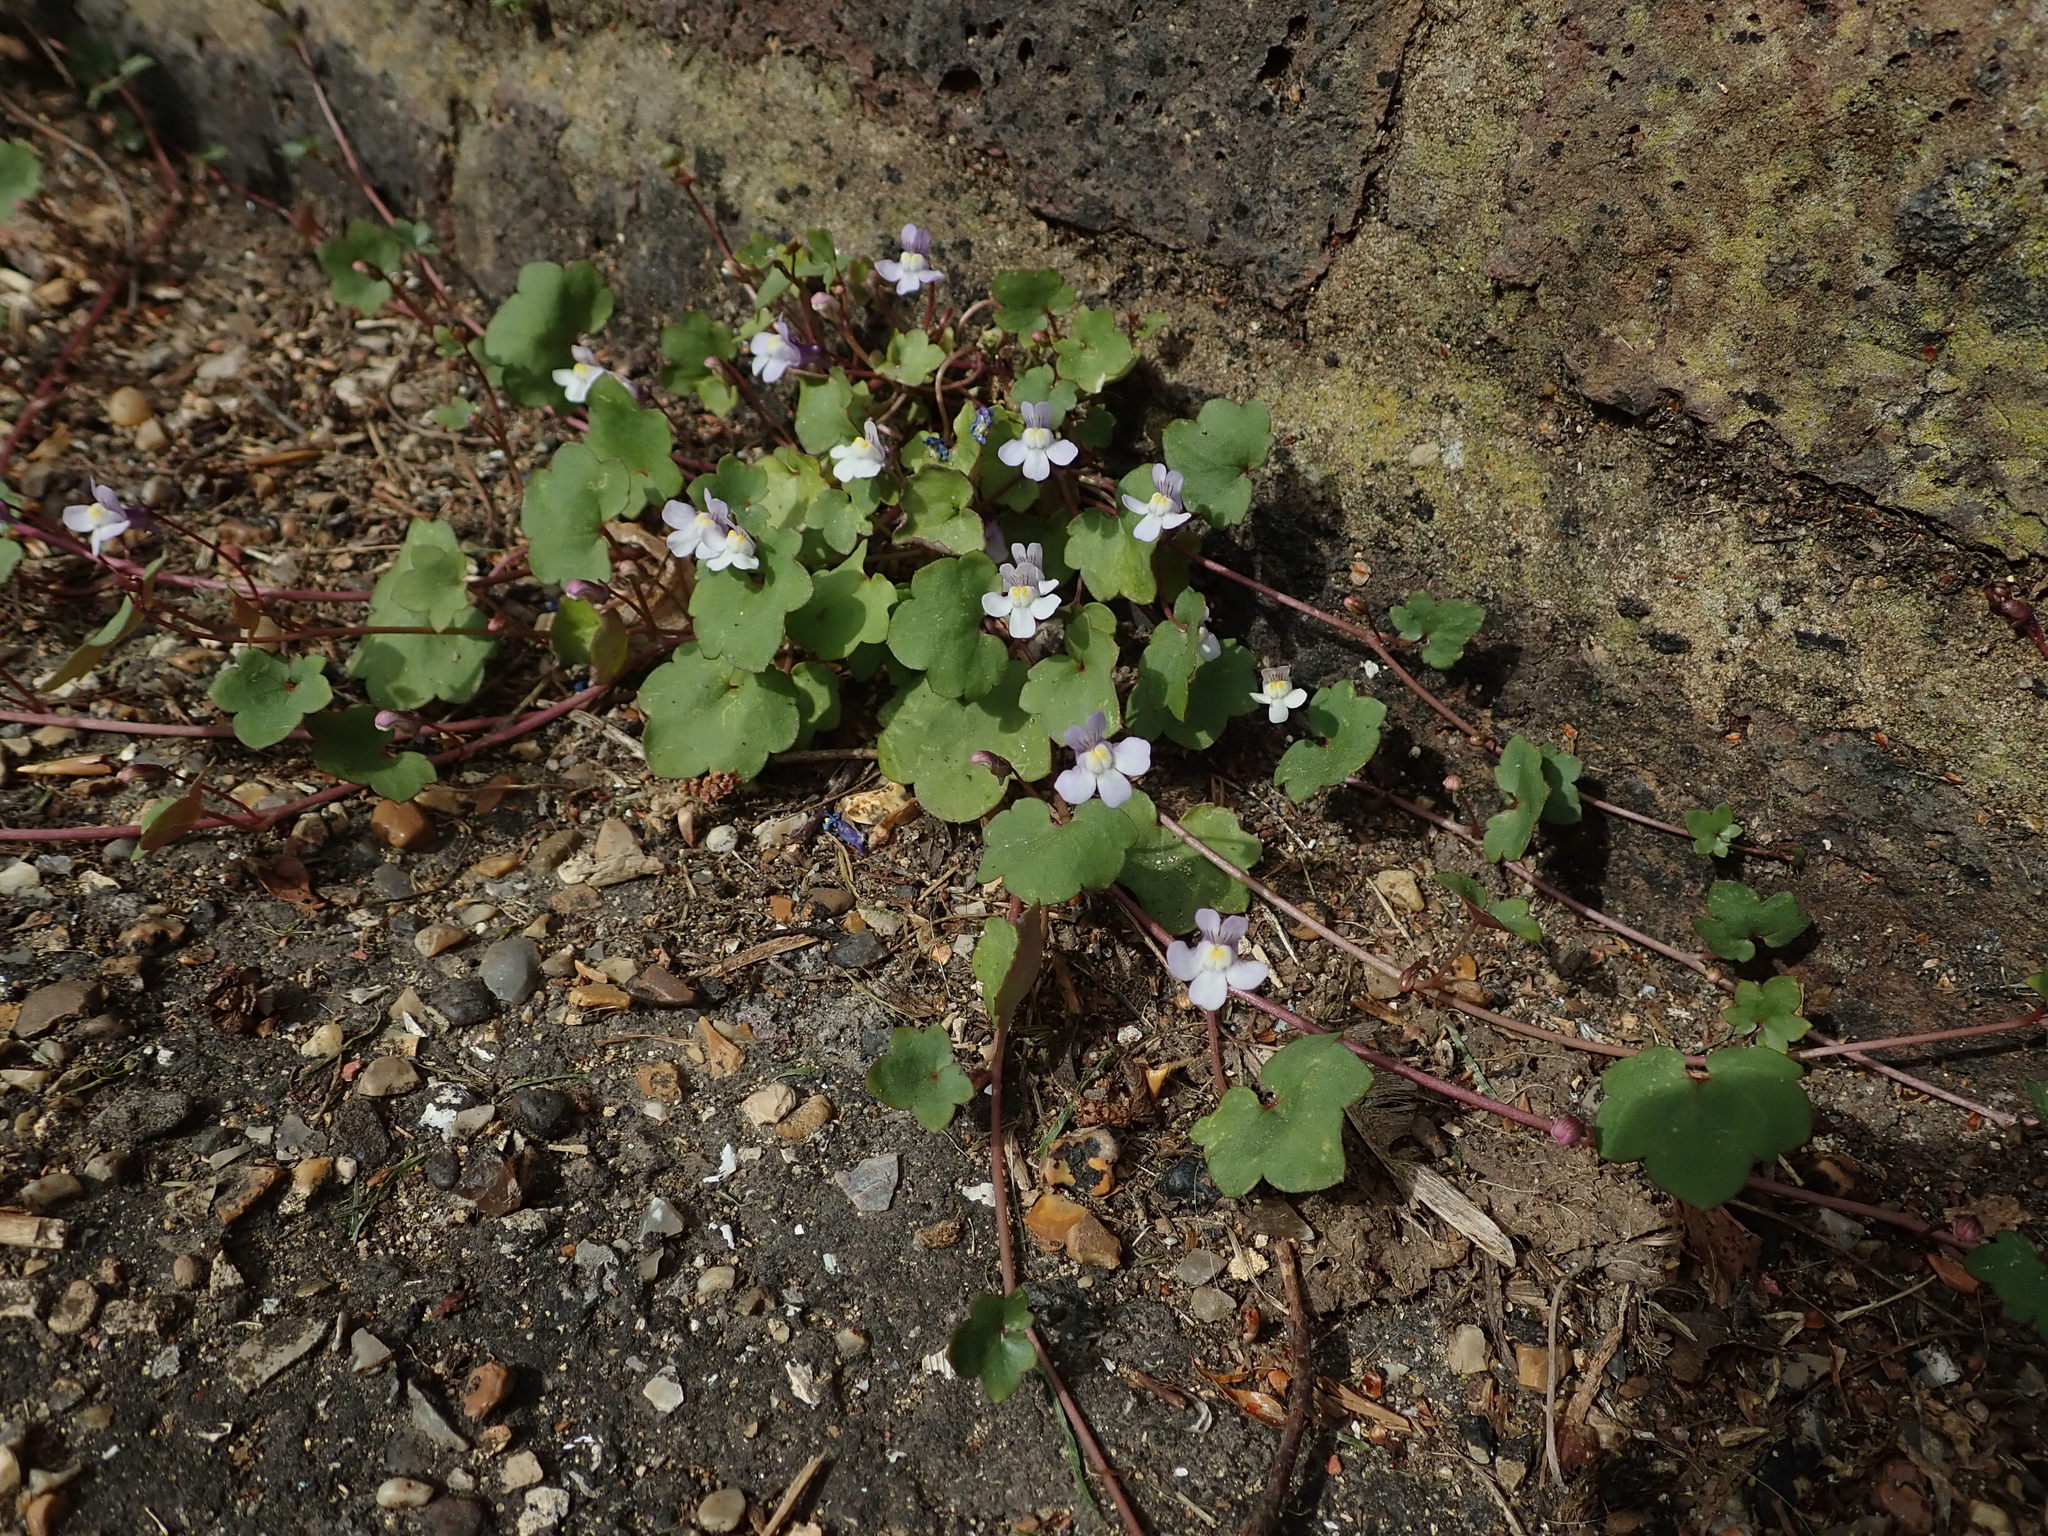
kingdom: Plantae
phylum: Tracheophyta
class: Magnoliopsida
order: Lamiales
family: Plantaginaceae
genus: Cymbalaria
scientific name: Cymbalaria muralis
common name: Ivy-leaved toadflax
